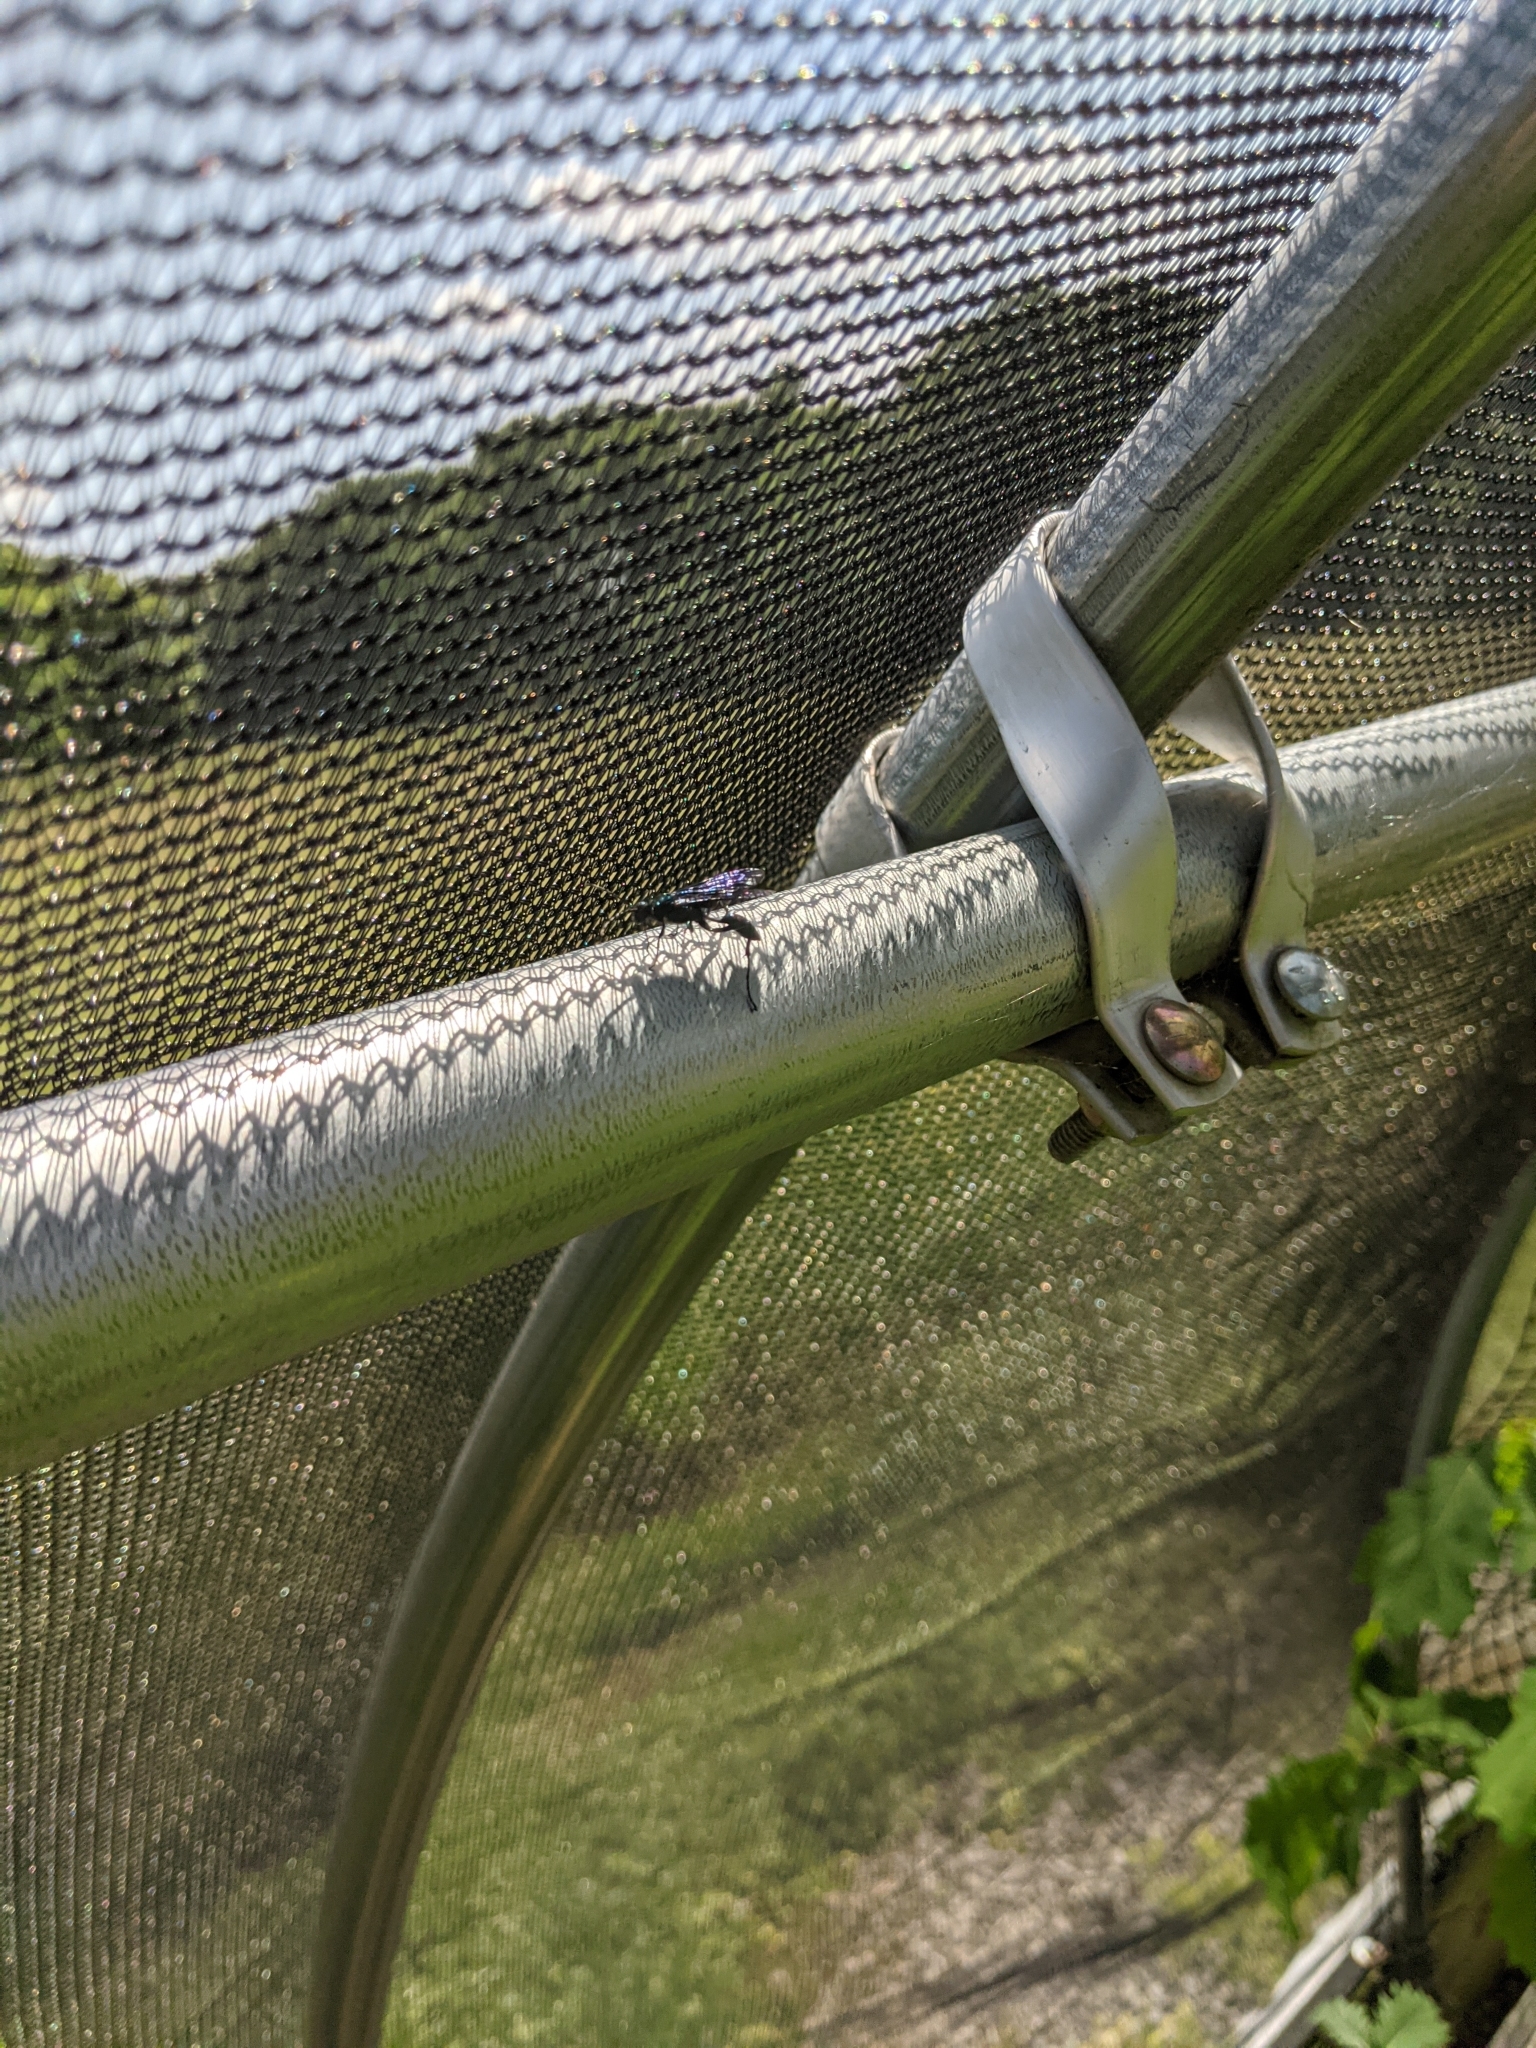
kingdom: Animalia
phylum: Arthropoda
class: Insecta
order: Hymenoptera
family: Sphecidae
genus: Chalybion
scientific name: Chalybion californicum
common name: Mud dauber
